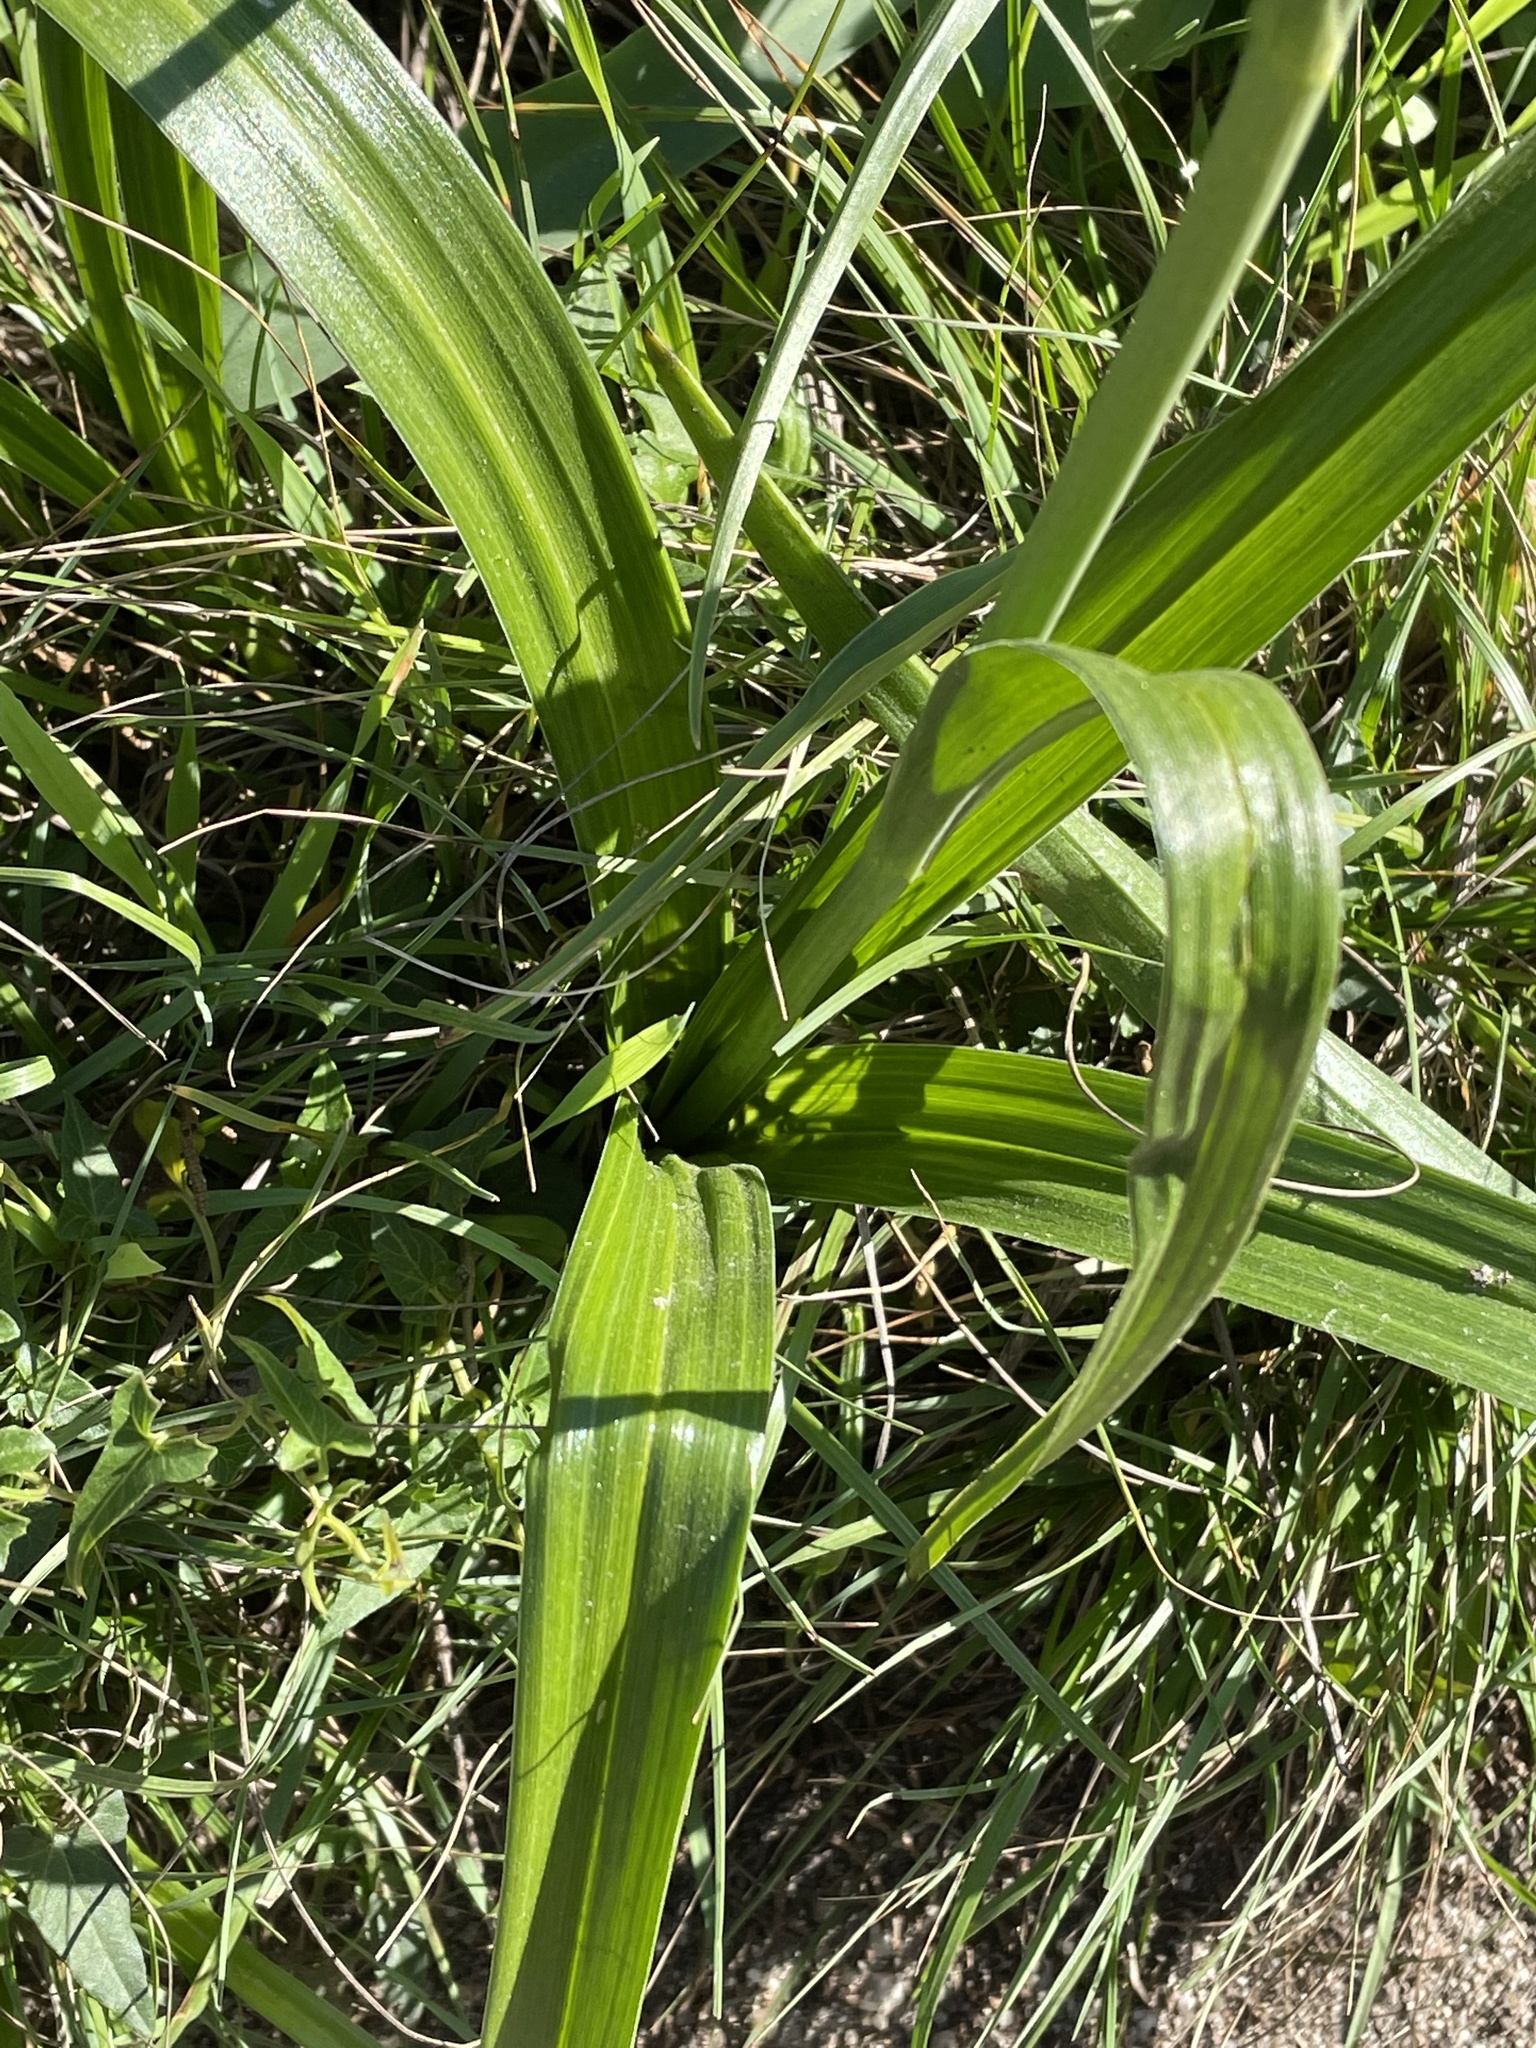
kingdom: Plantae
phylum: Tracheophyta
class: Liliopsida
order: Liliales
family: Melanthiaceae
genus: Toxicoscordion
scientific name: Toxicoscordion fremontii
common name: Fremont's death camas
